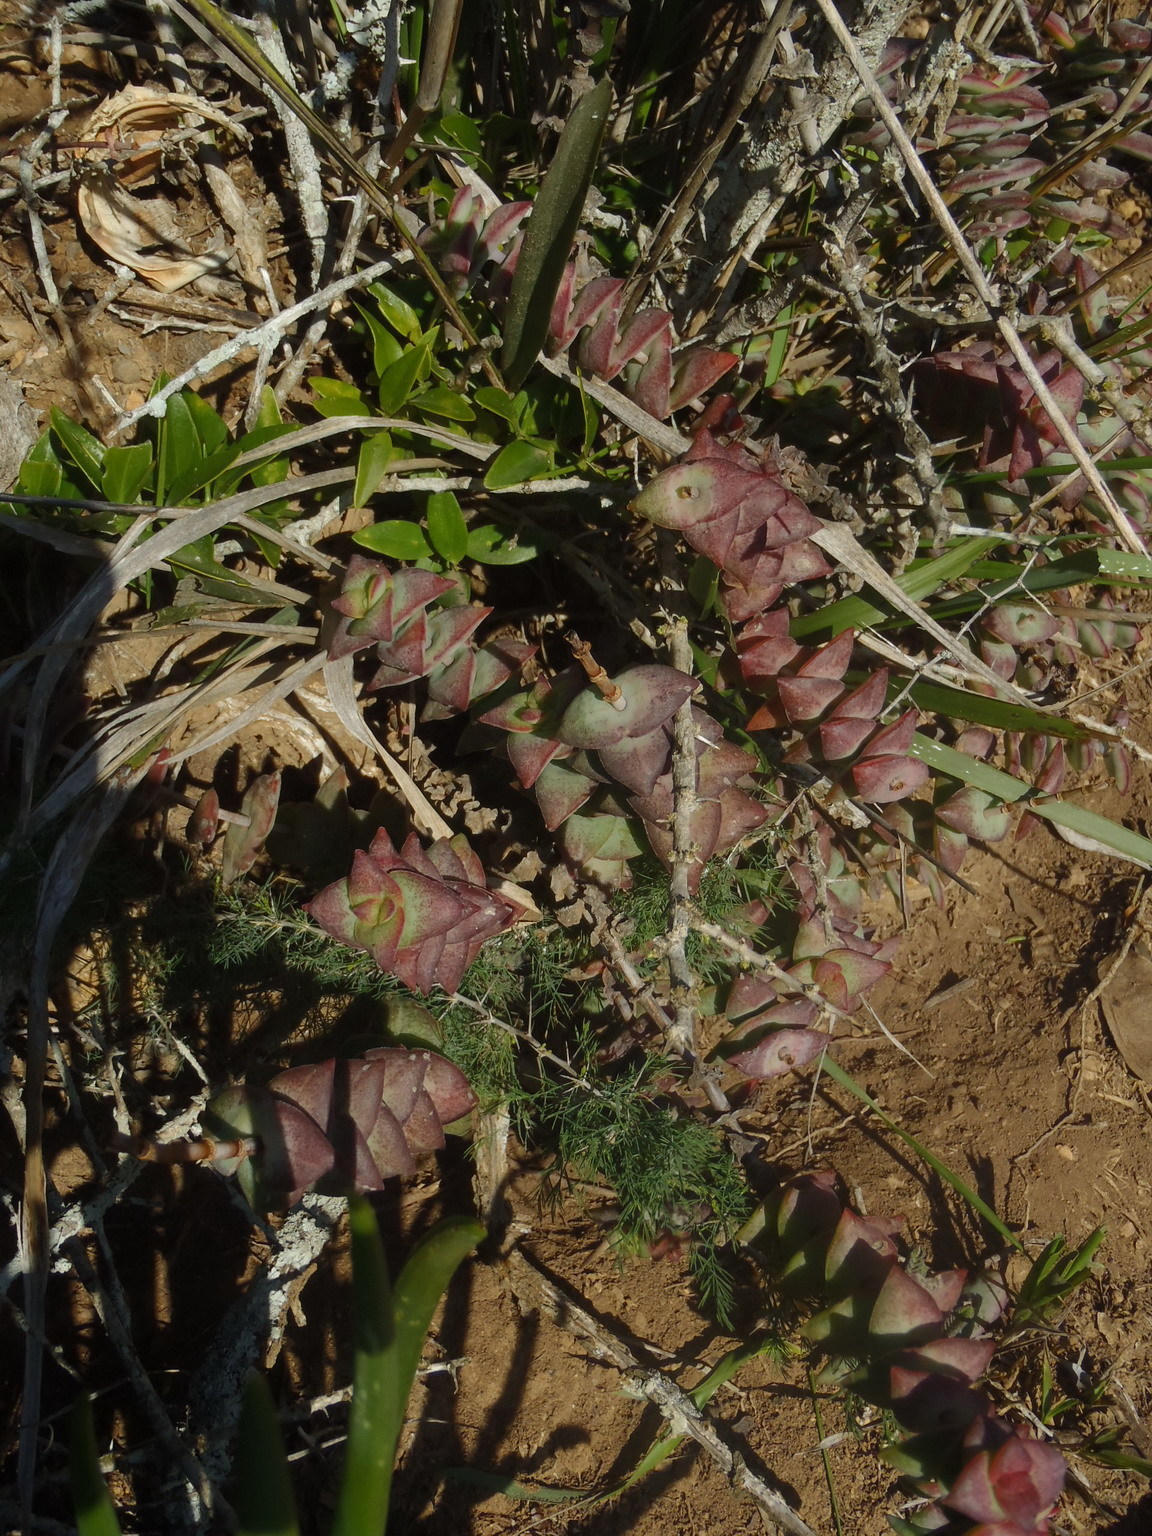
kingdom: Plantae
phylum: Tracheophyta
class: Magnoliopsida
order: Saxifragales
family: Crassulaceae
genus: Crassula
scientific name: Crassula perforata
